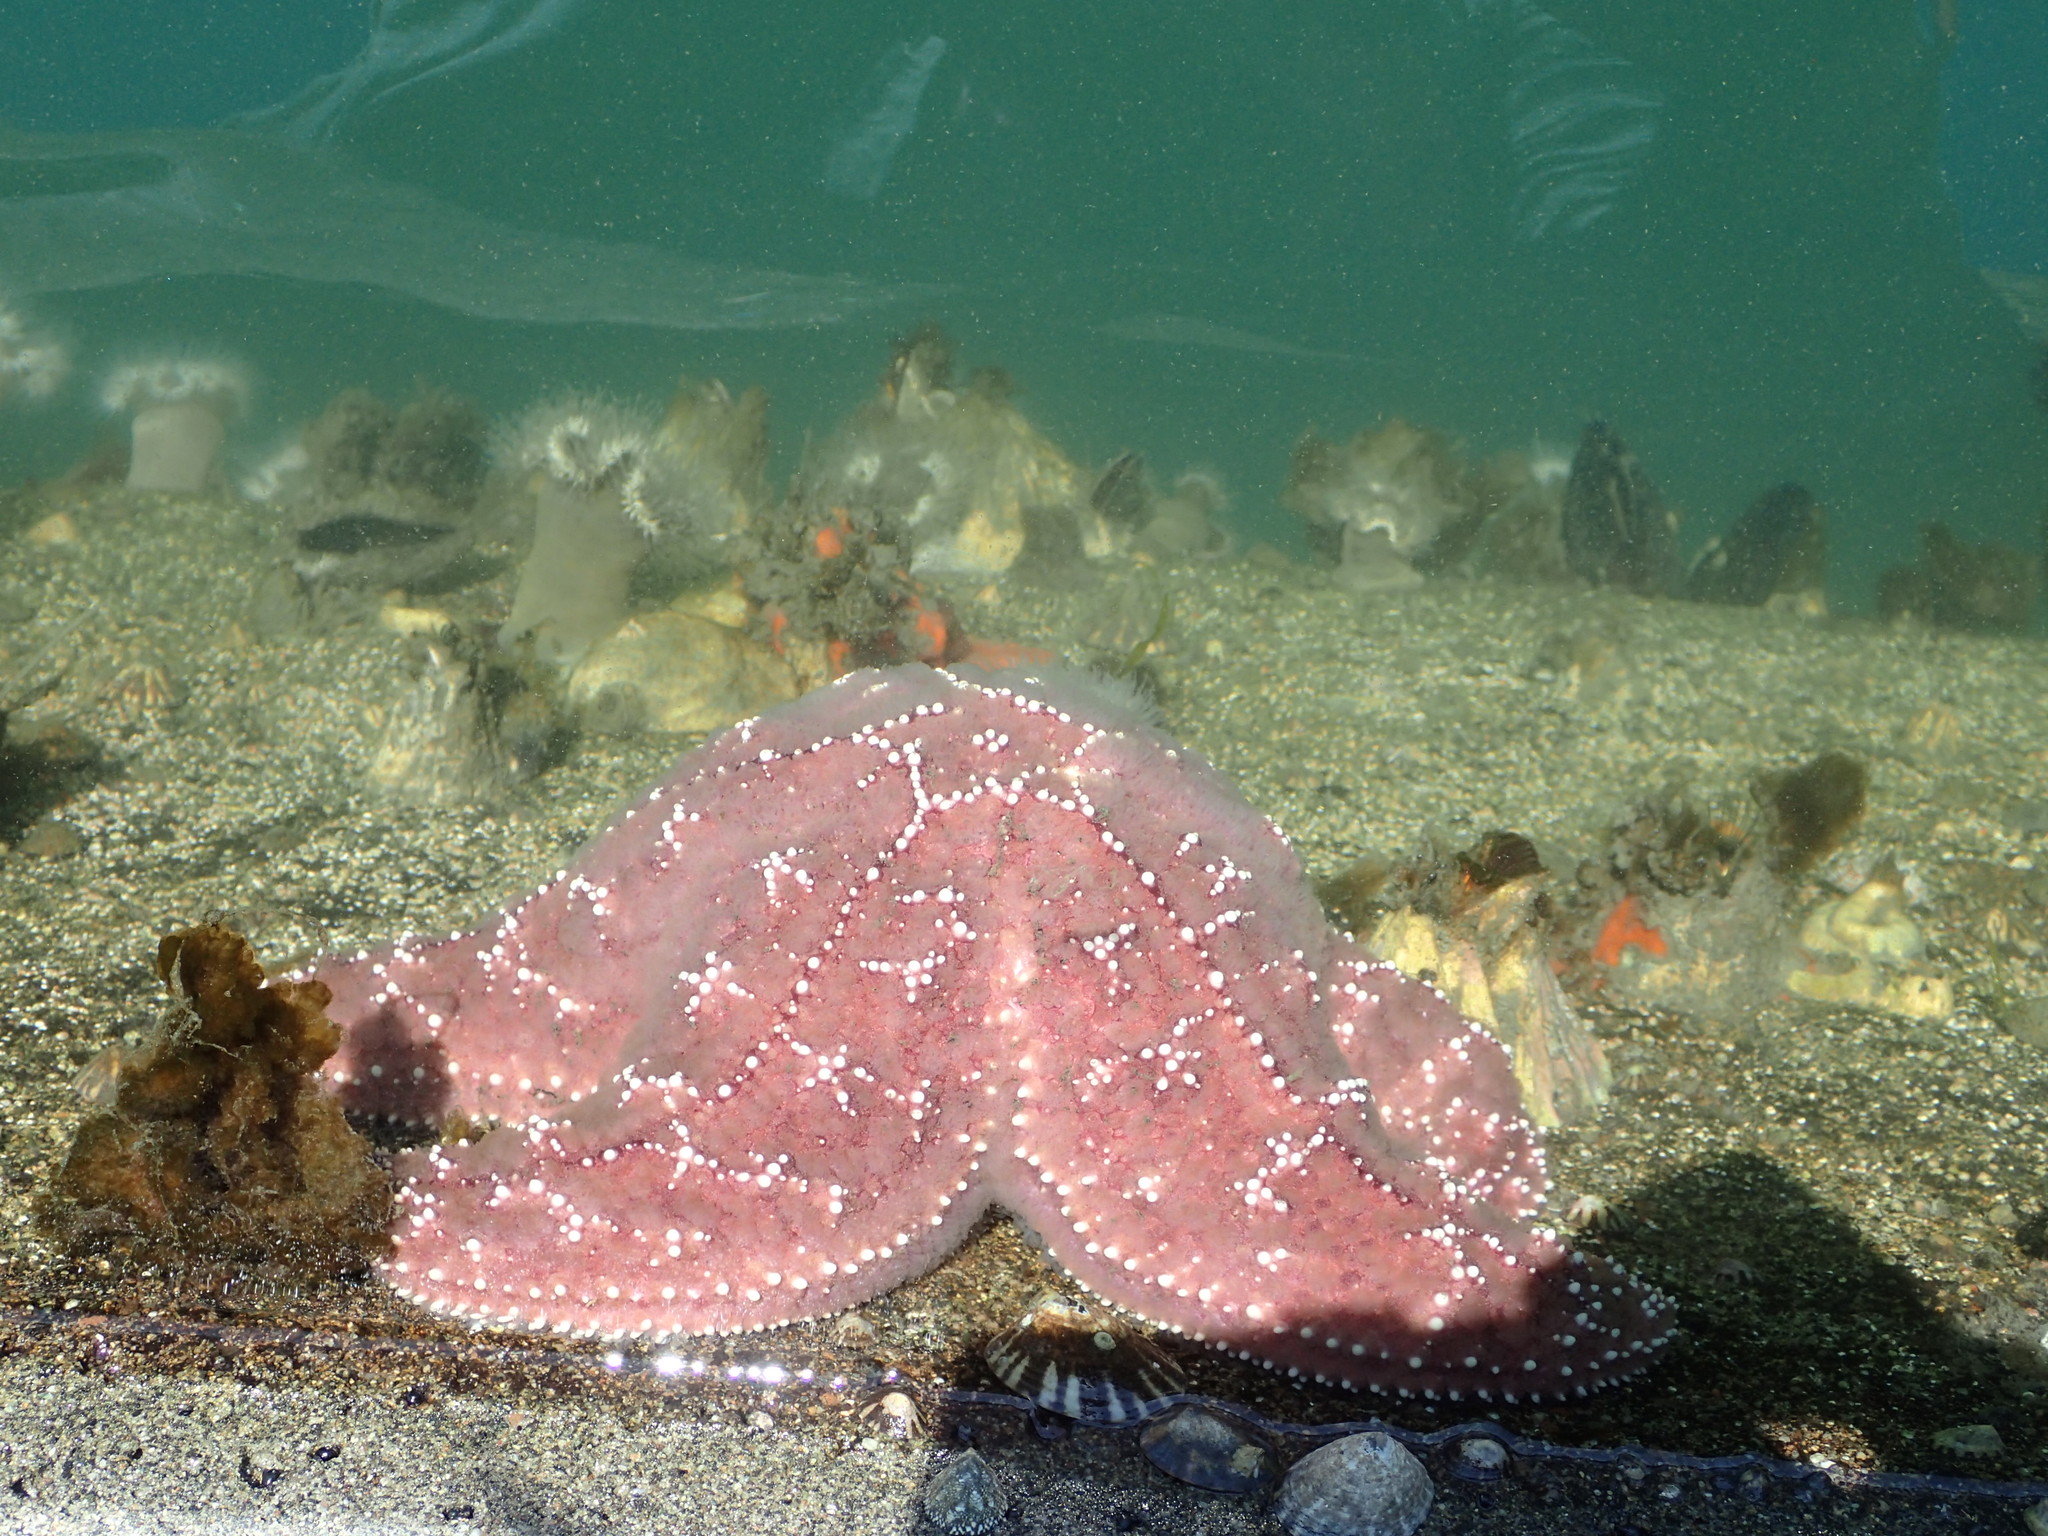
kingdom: Animalia
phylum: Echinodermata
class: Asteroidea
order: Forcipulatida
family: Asteriidae
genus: Pisaster
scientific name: Pisaster ochraceus
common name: Ochre stars
